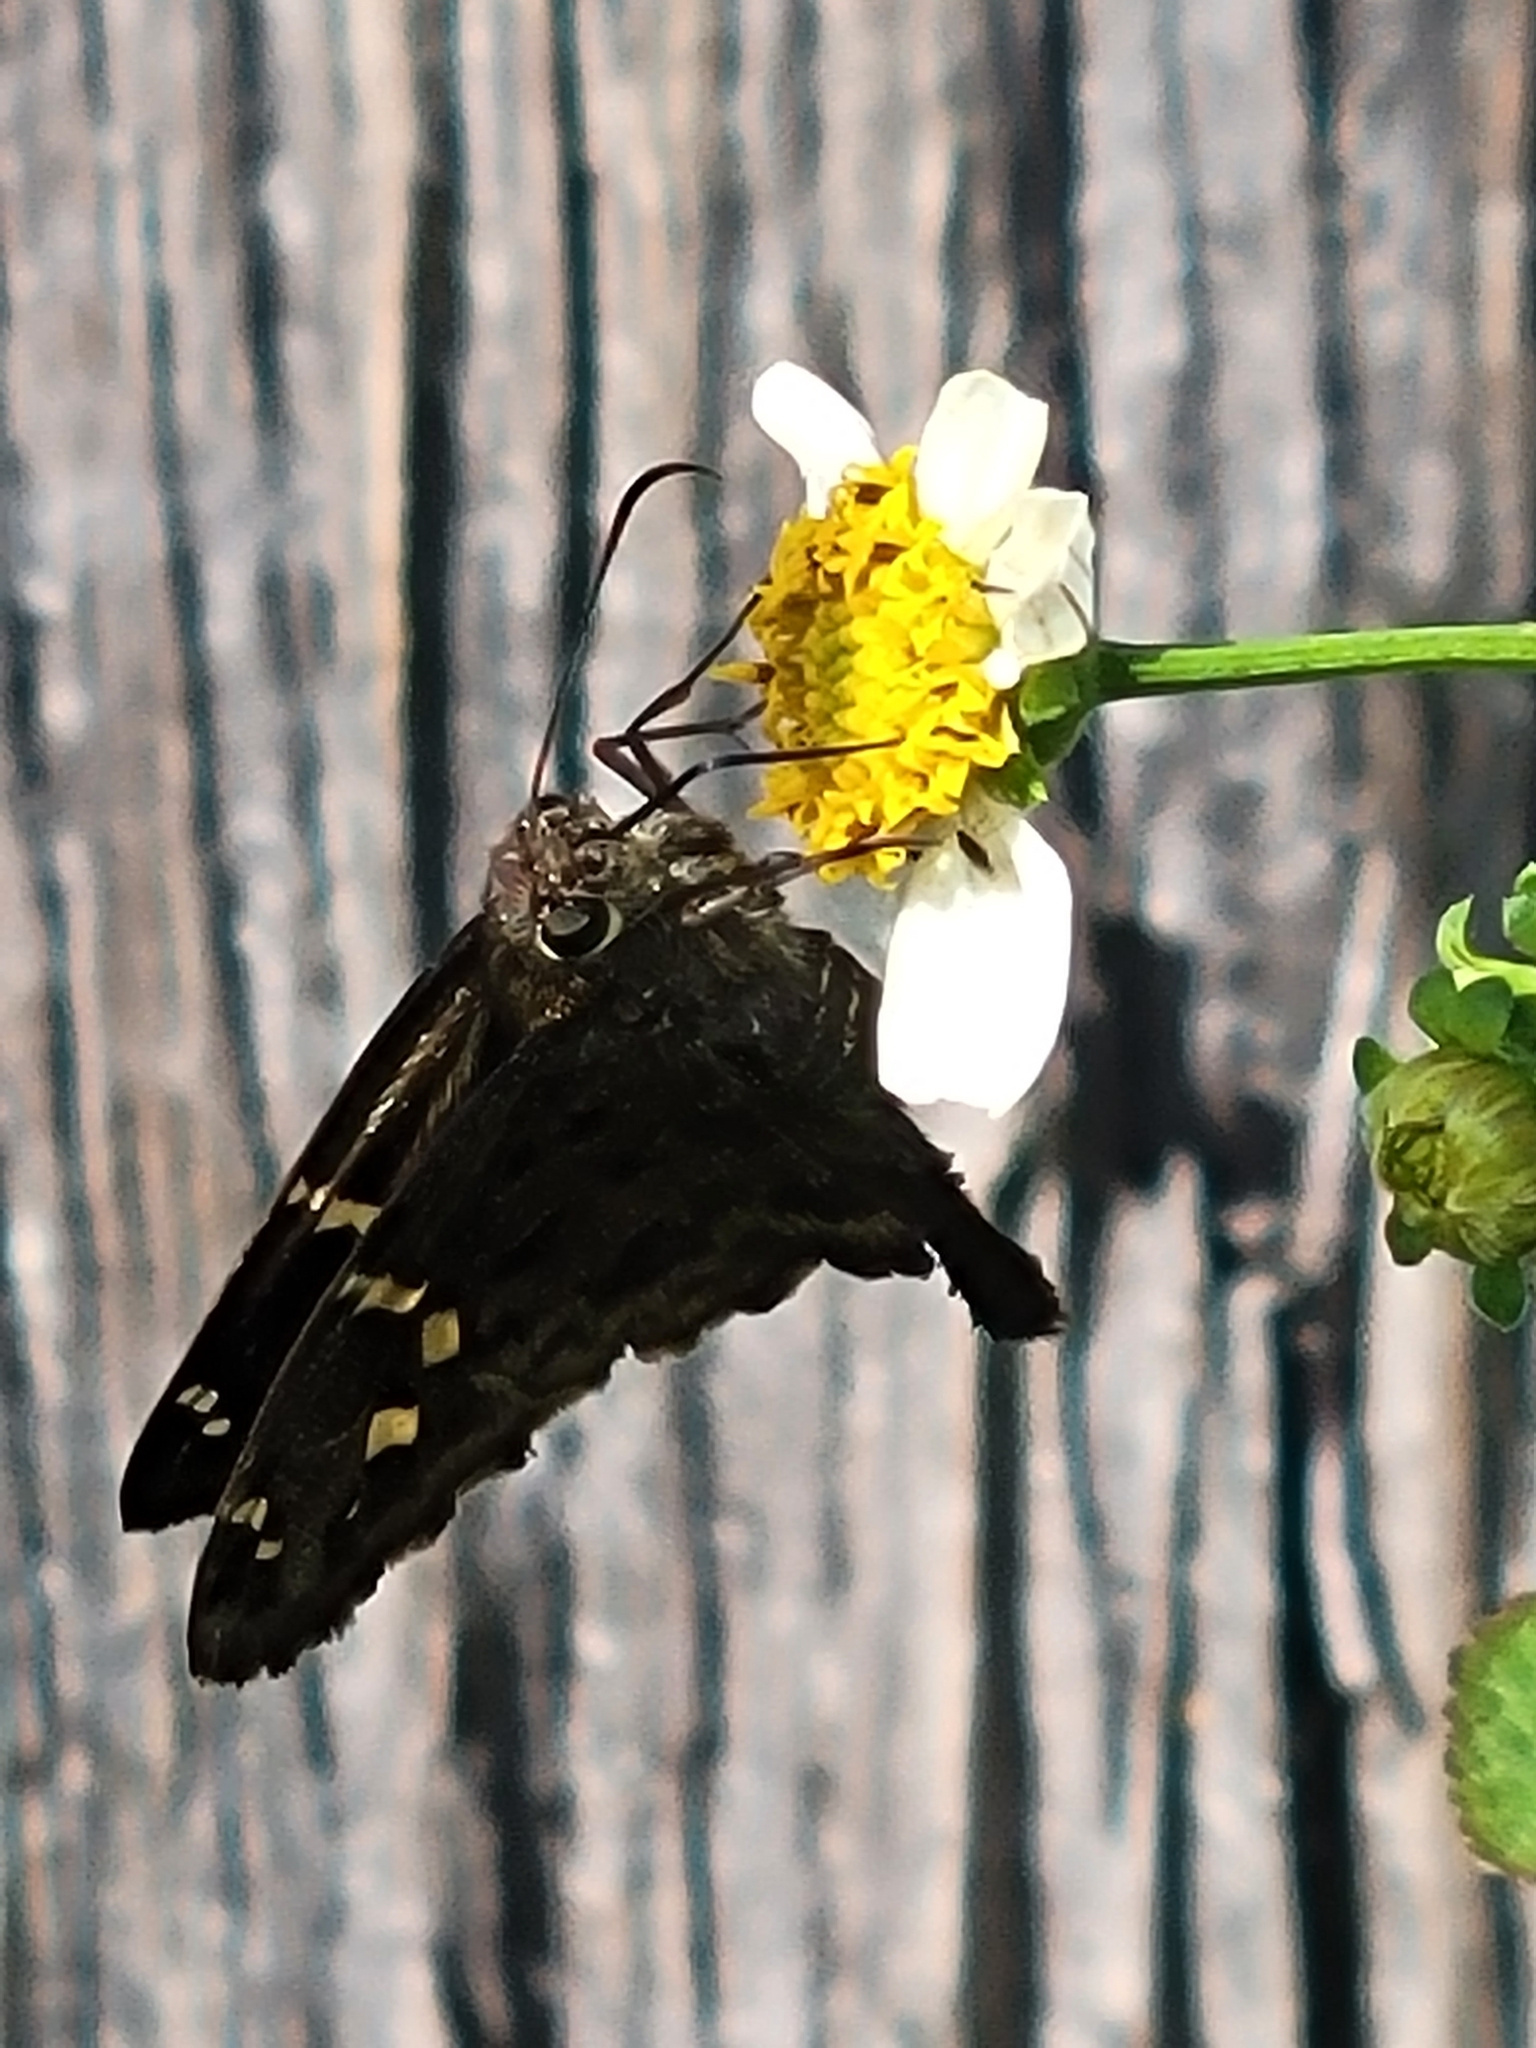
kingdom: Animalia
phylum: Arthropoda
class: Insecta
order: Lepidoptera
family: Hesperiidae
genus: Thorybes
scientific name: Thorybes
